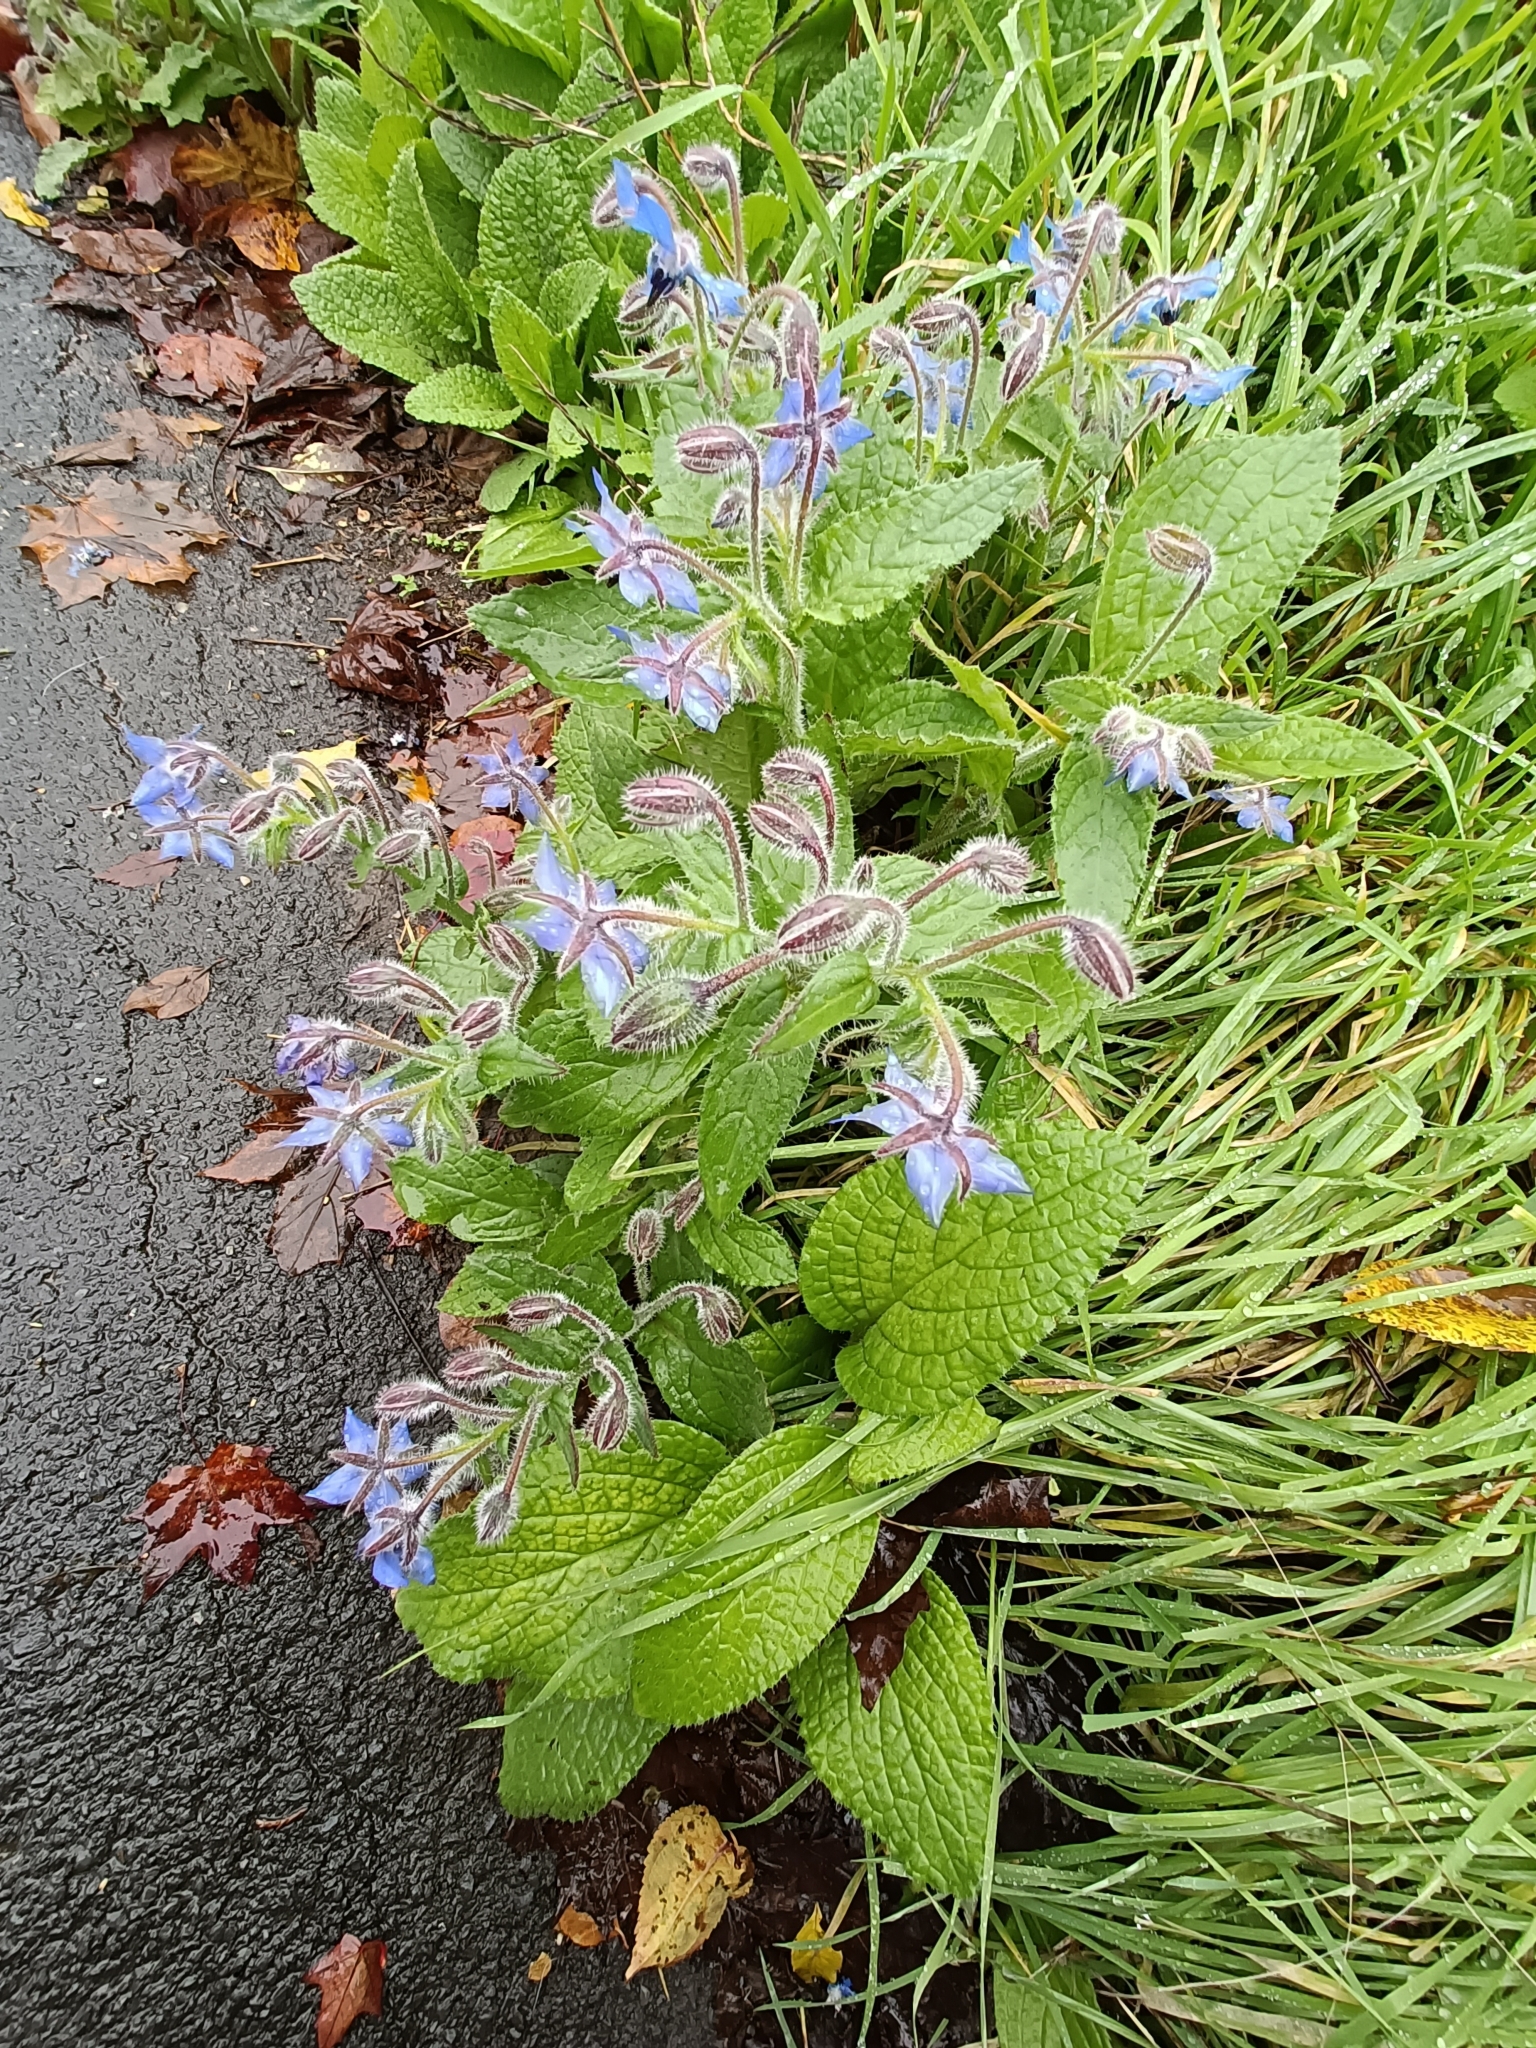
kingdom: Plantae
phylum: Tracheophyta
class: Magnoliopsida
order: Boraginales
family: Boraginaceae
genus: Borago
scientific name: Borago officinalis
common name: Borage
